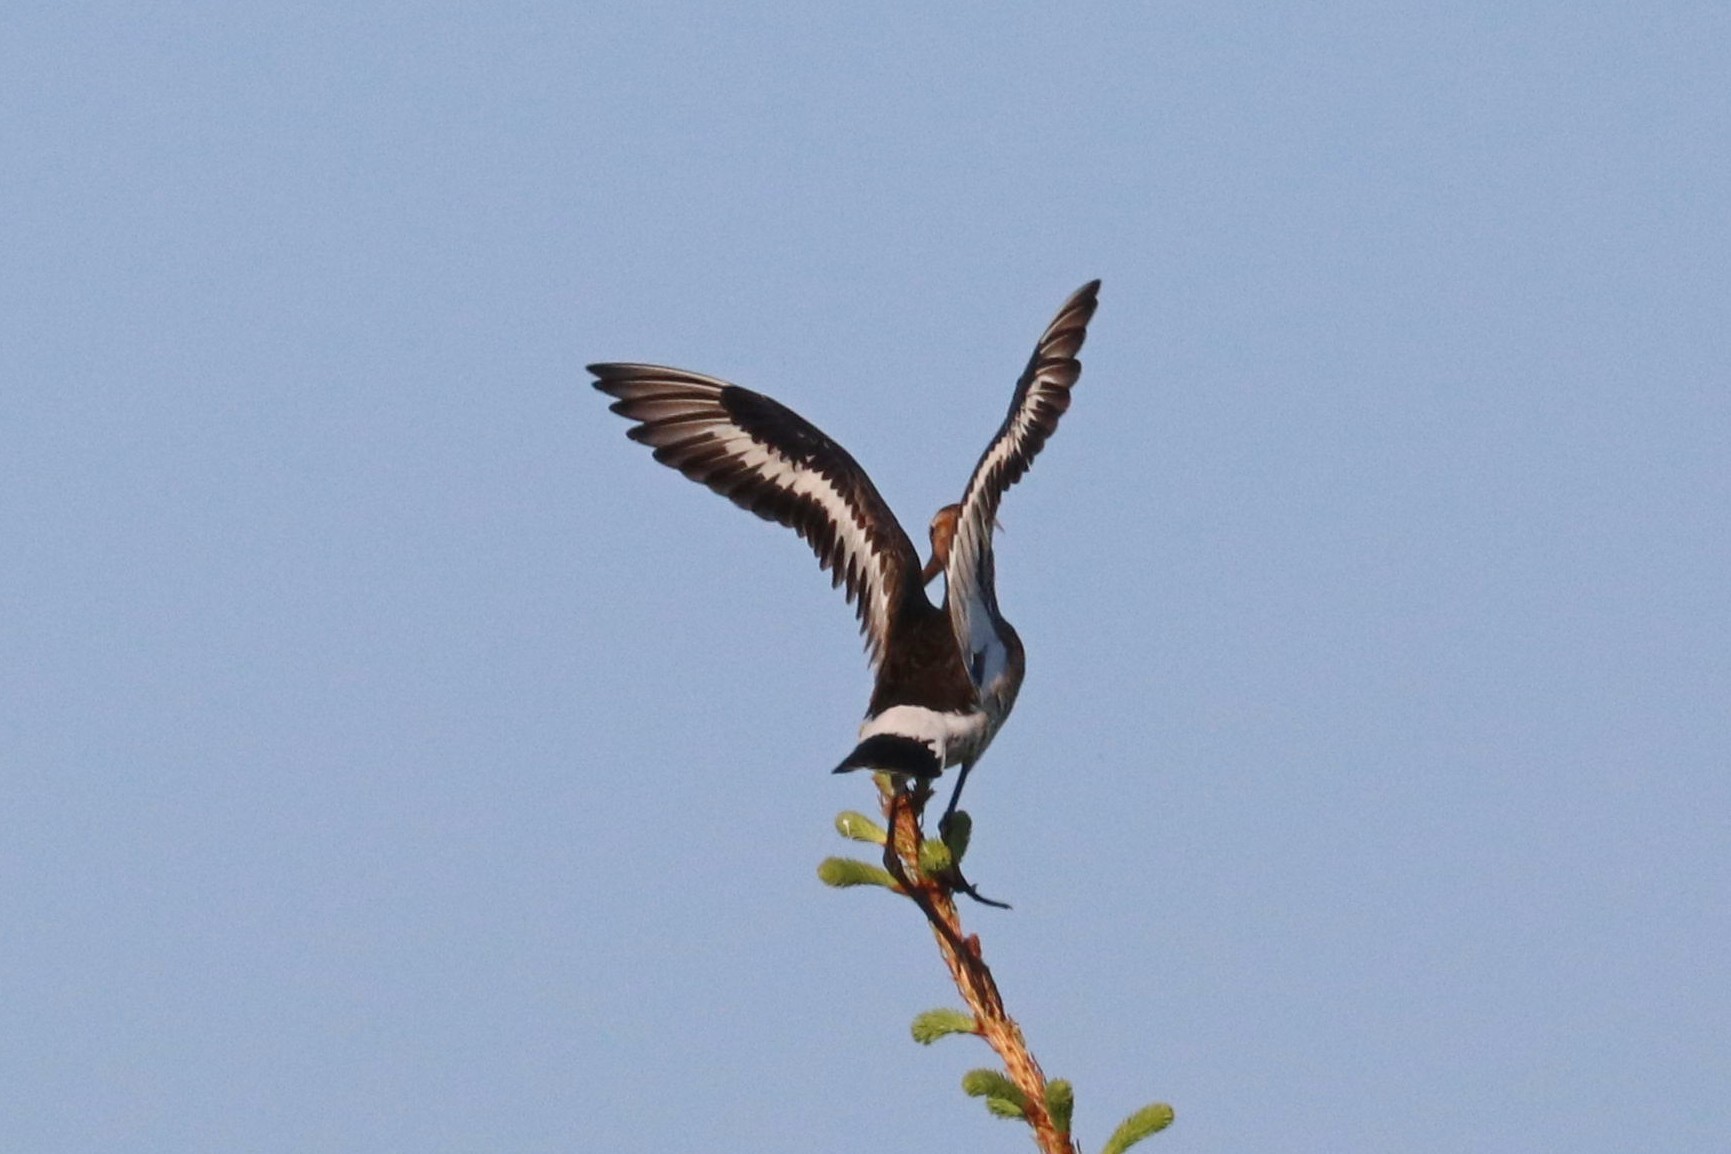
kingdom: Animalia
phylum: Chordata
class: Aves
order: Charadriiformes
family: Scolopacidae
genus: Limosa
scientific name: Limosa limosa
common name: Black-tailed godwit
